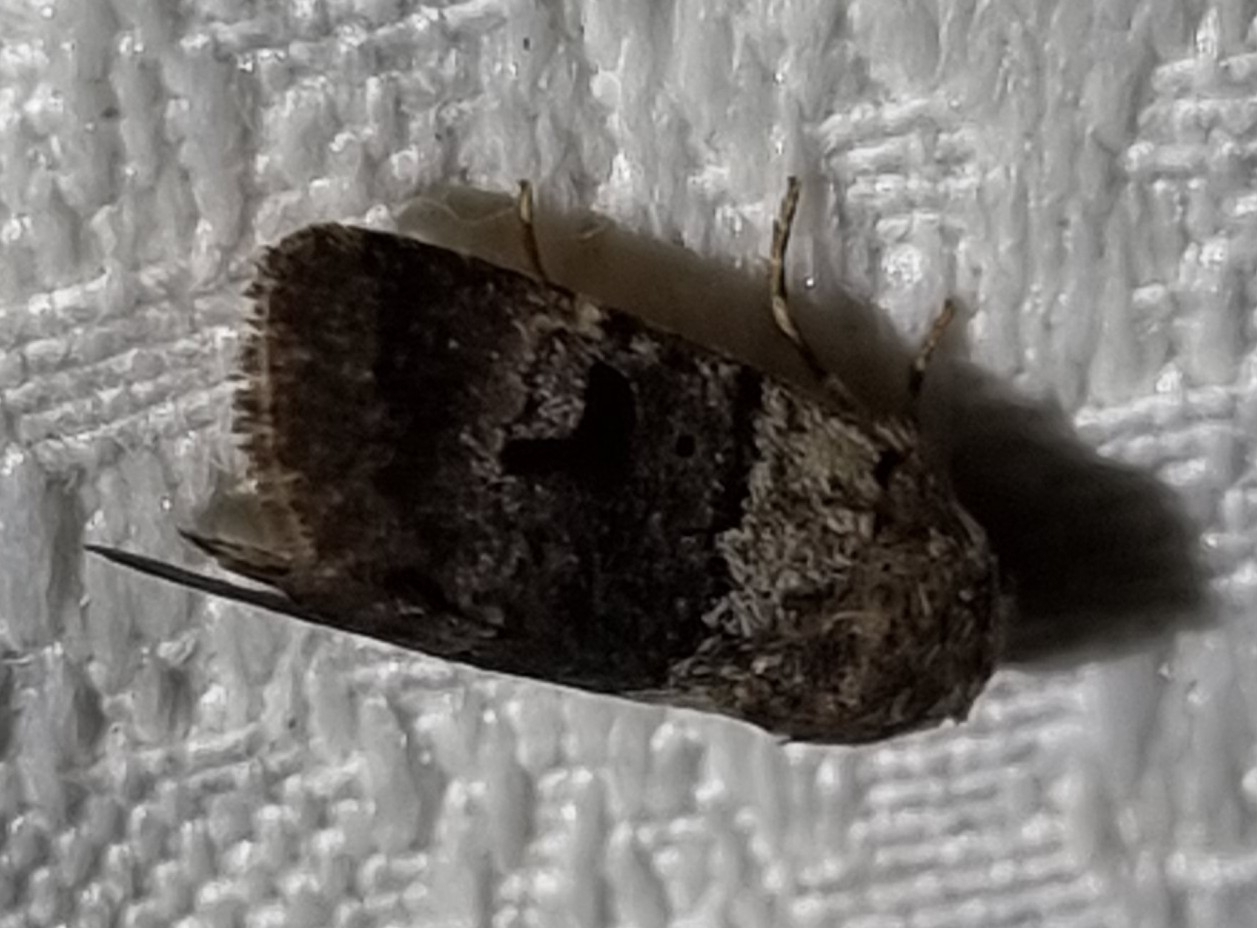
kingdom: Animalia
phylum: Arthropoda
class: Insecta
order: Lepidoptera
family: Noctuidae
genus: Thoracolopha
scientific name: Thoracolopha flexirena
